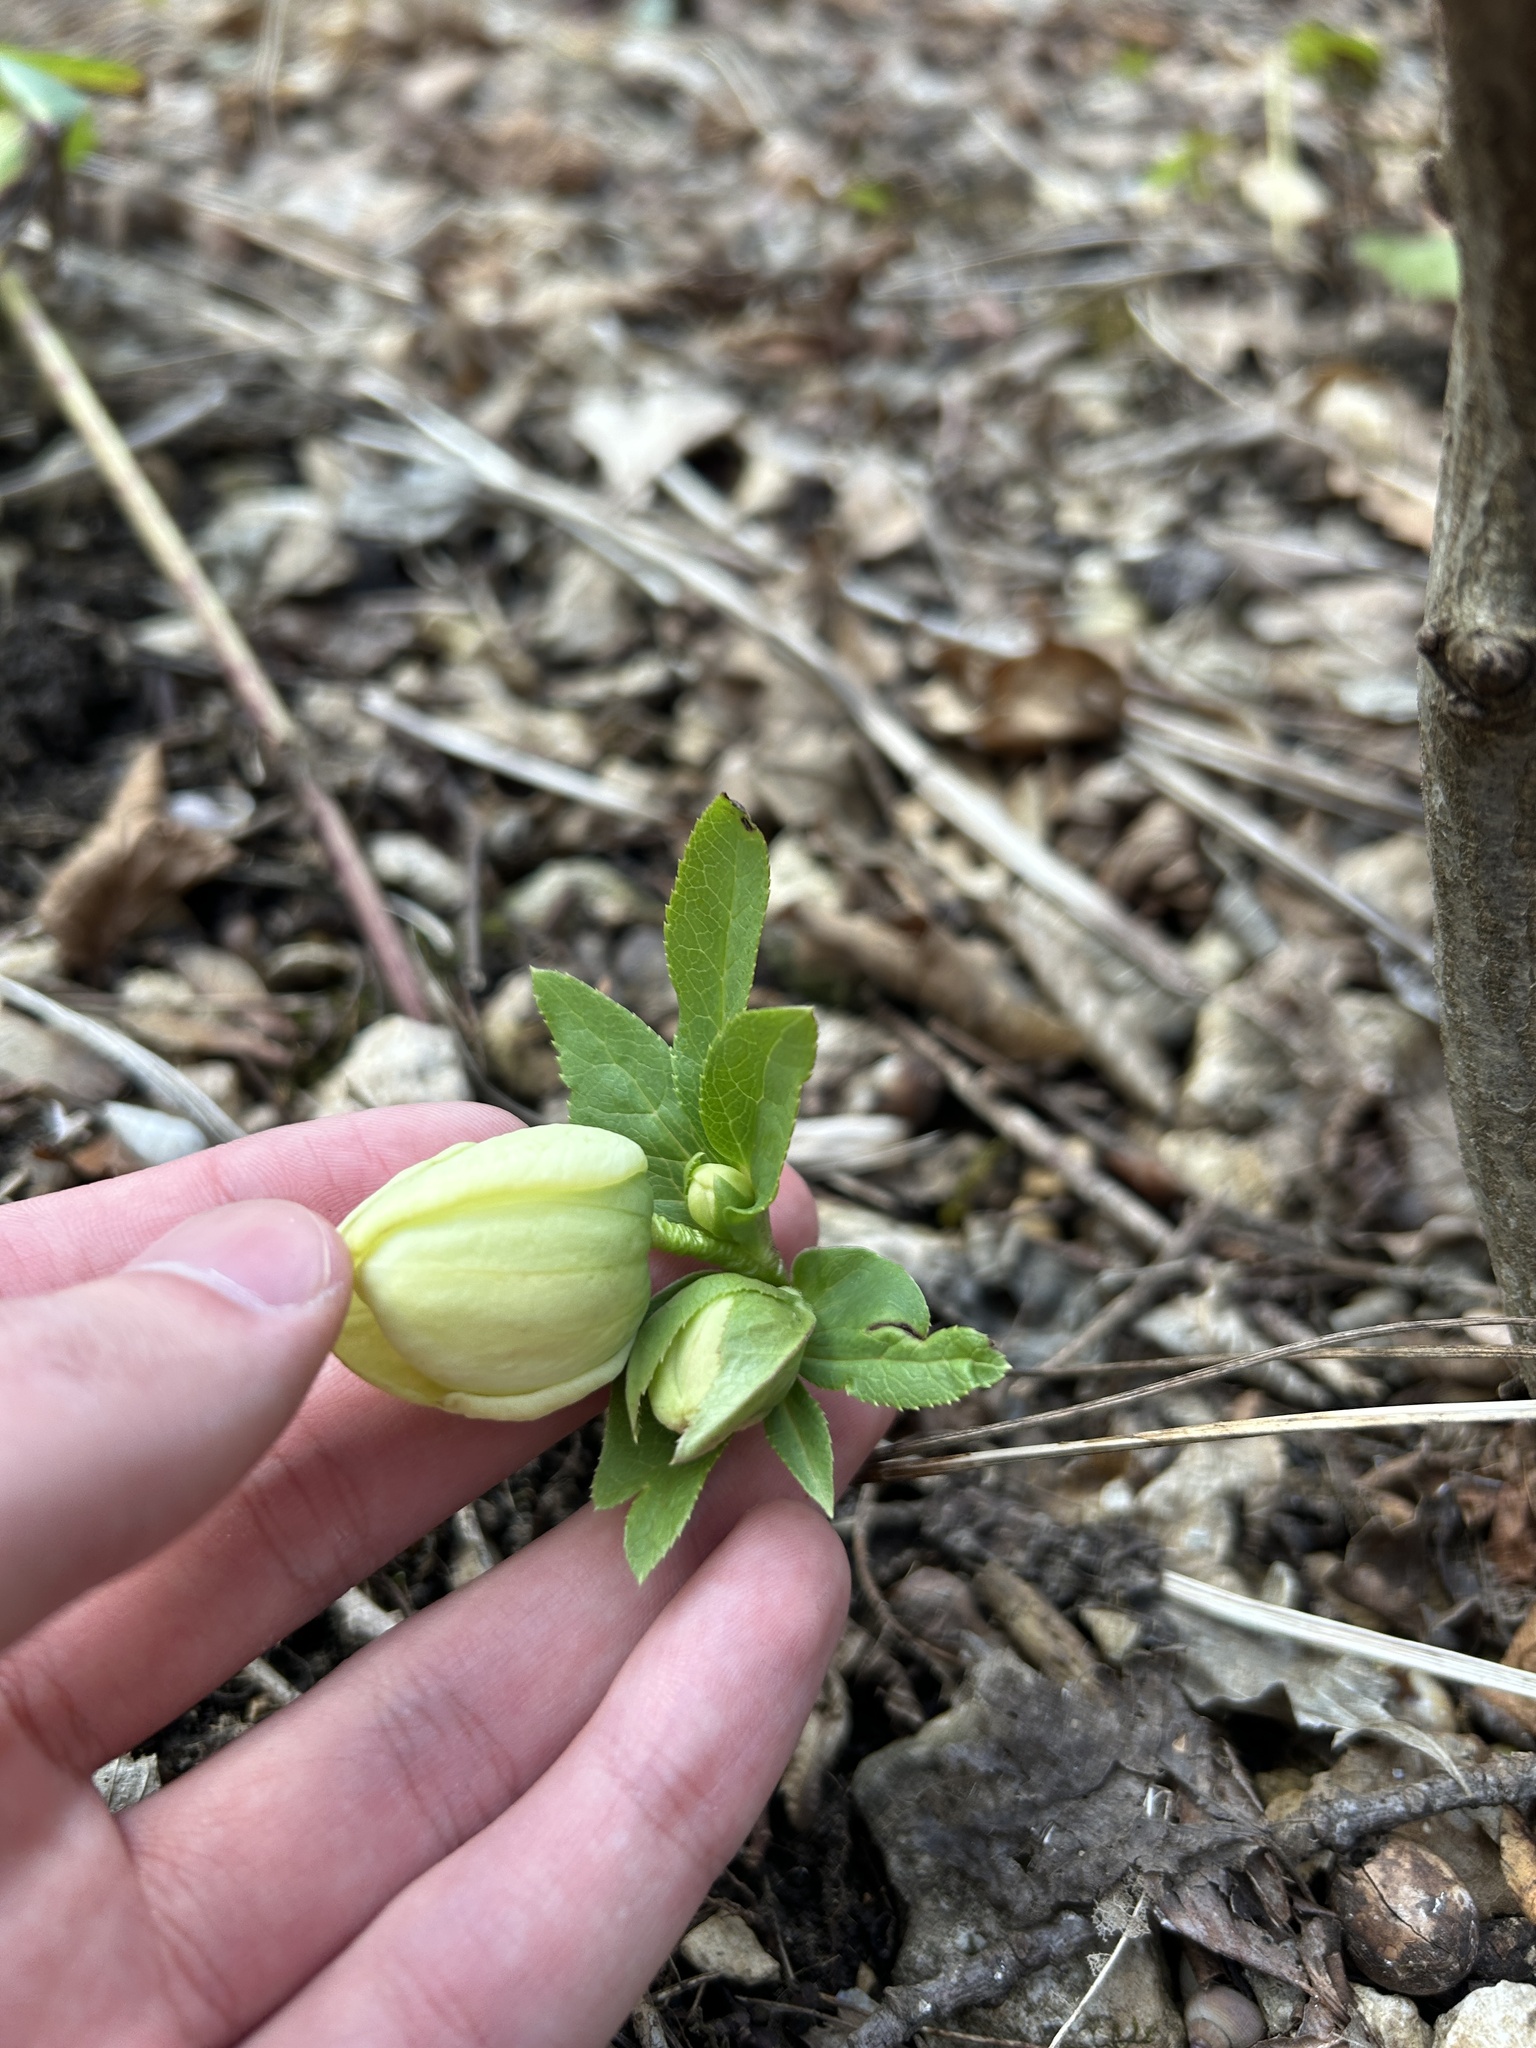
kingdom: Plantae
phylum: Tracheophyta
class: Magnoliopsida
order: Ranunculales
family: Ranunculaceae
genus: Helleborus
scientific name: Helleborus orientalis
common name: Lenten-rose
